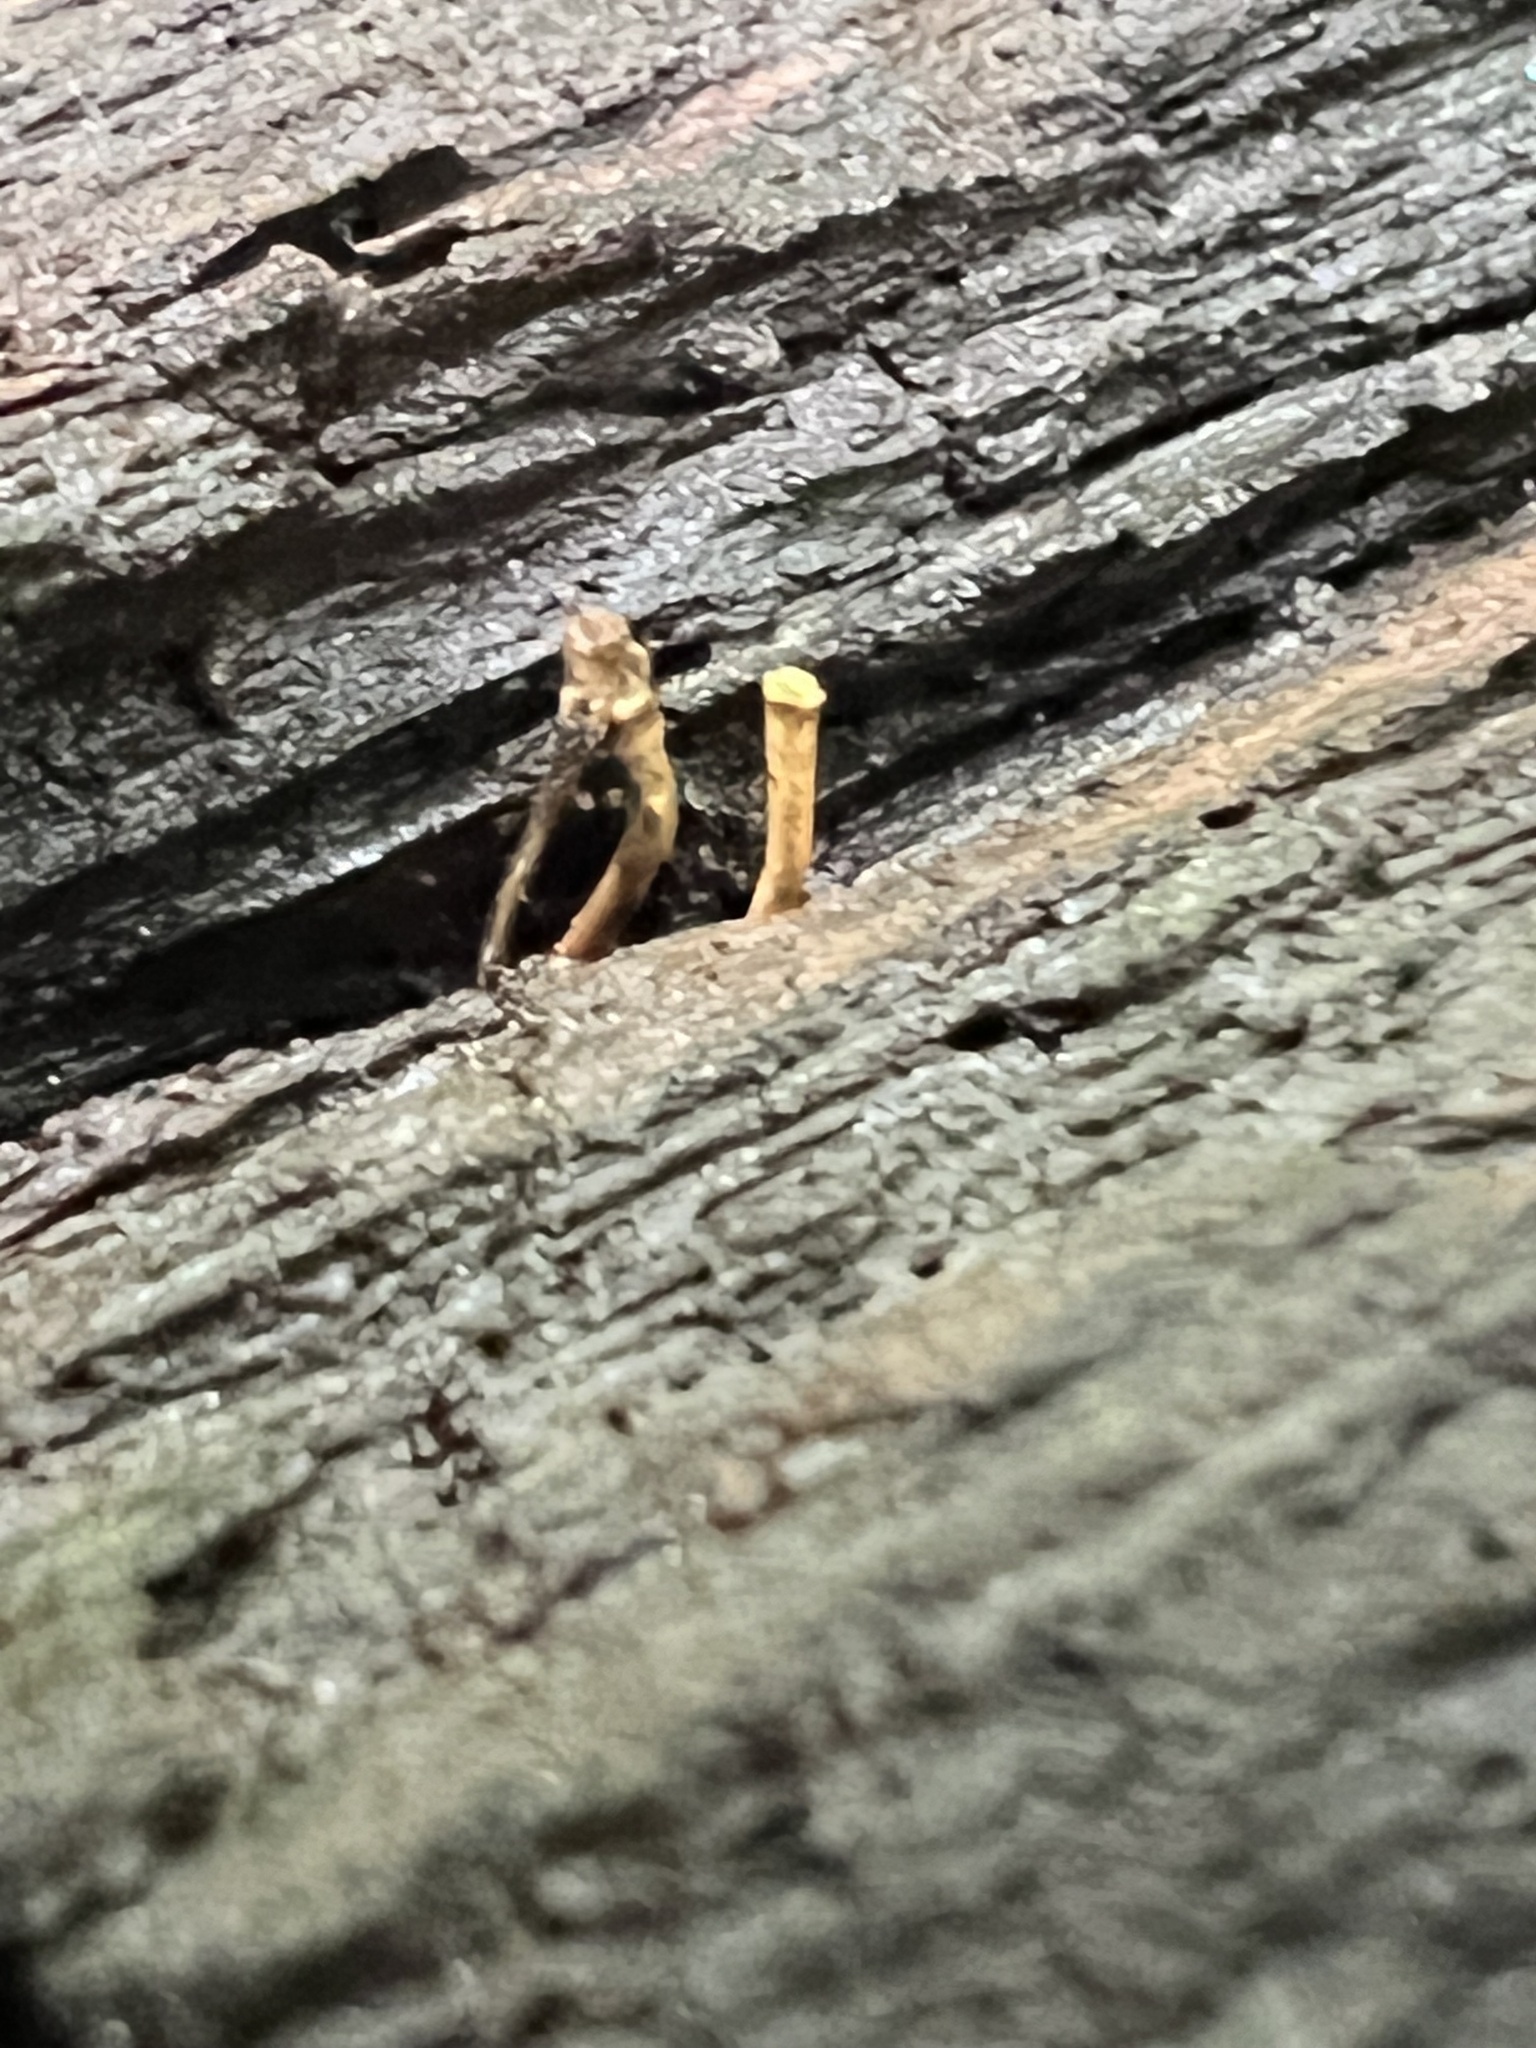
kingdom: Fungi
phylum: Ascomycota
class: Sordariomycetes
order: Hypocreales
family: Ophiocordycipitaceae
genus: Ophiocordyceps
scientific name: Ophiocordyceps variabilis
